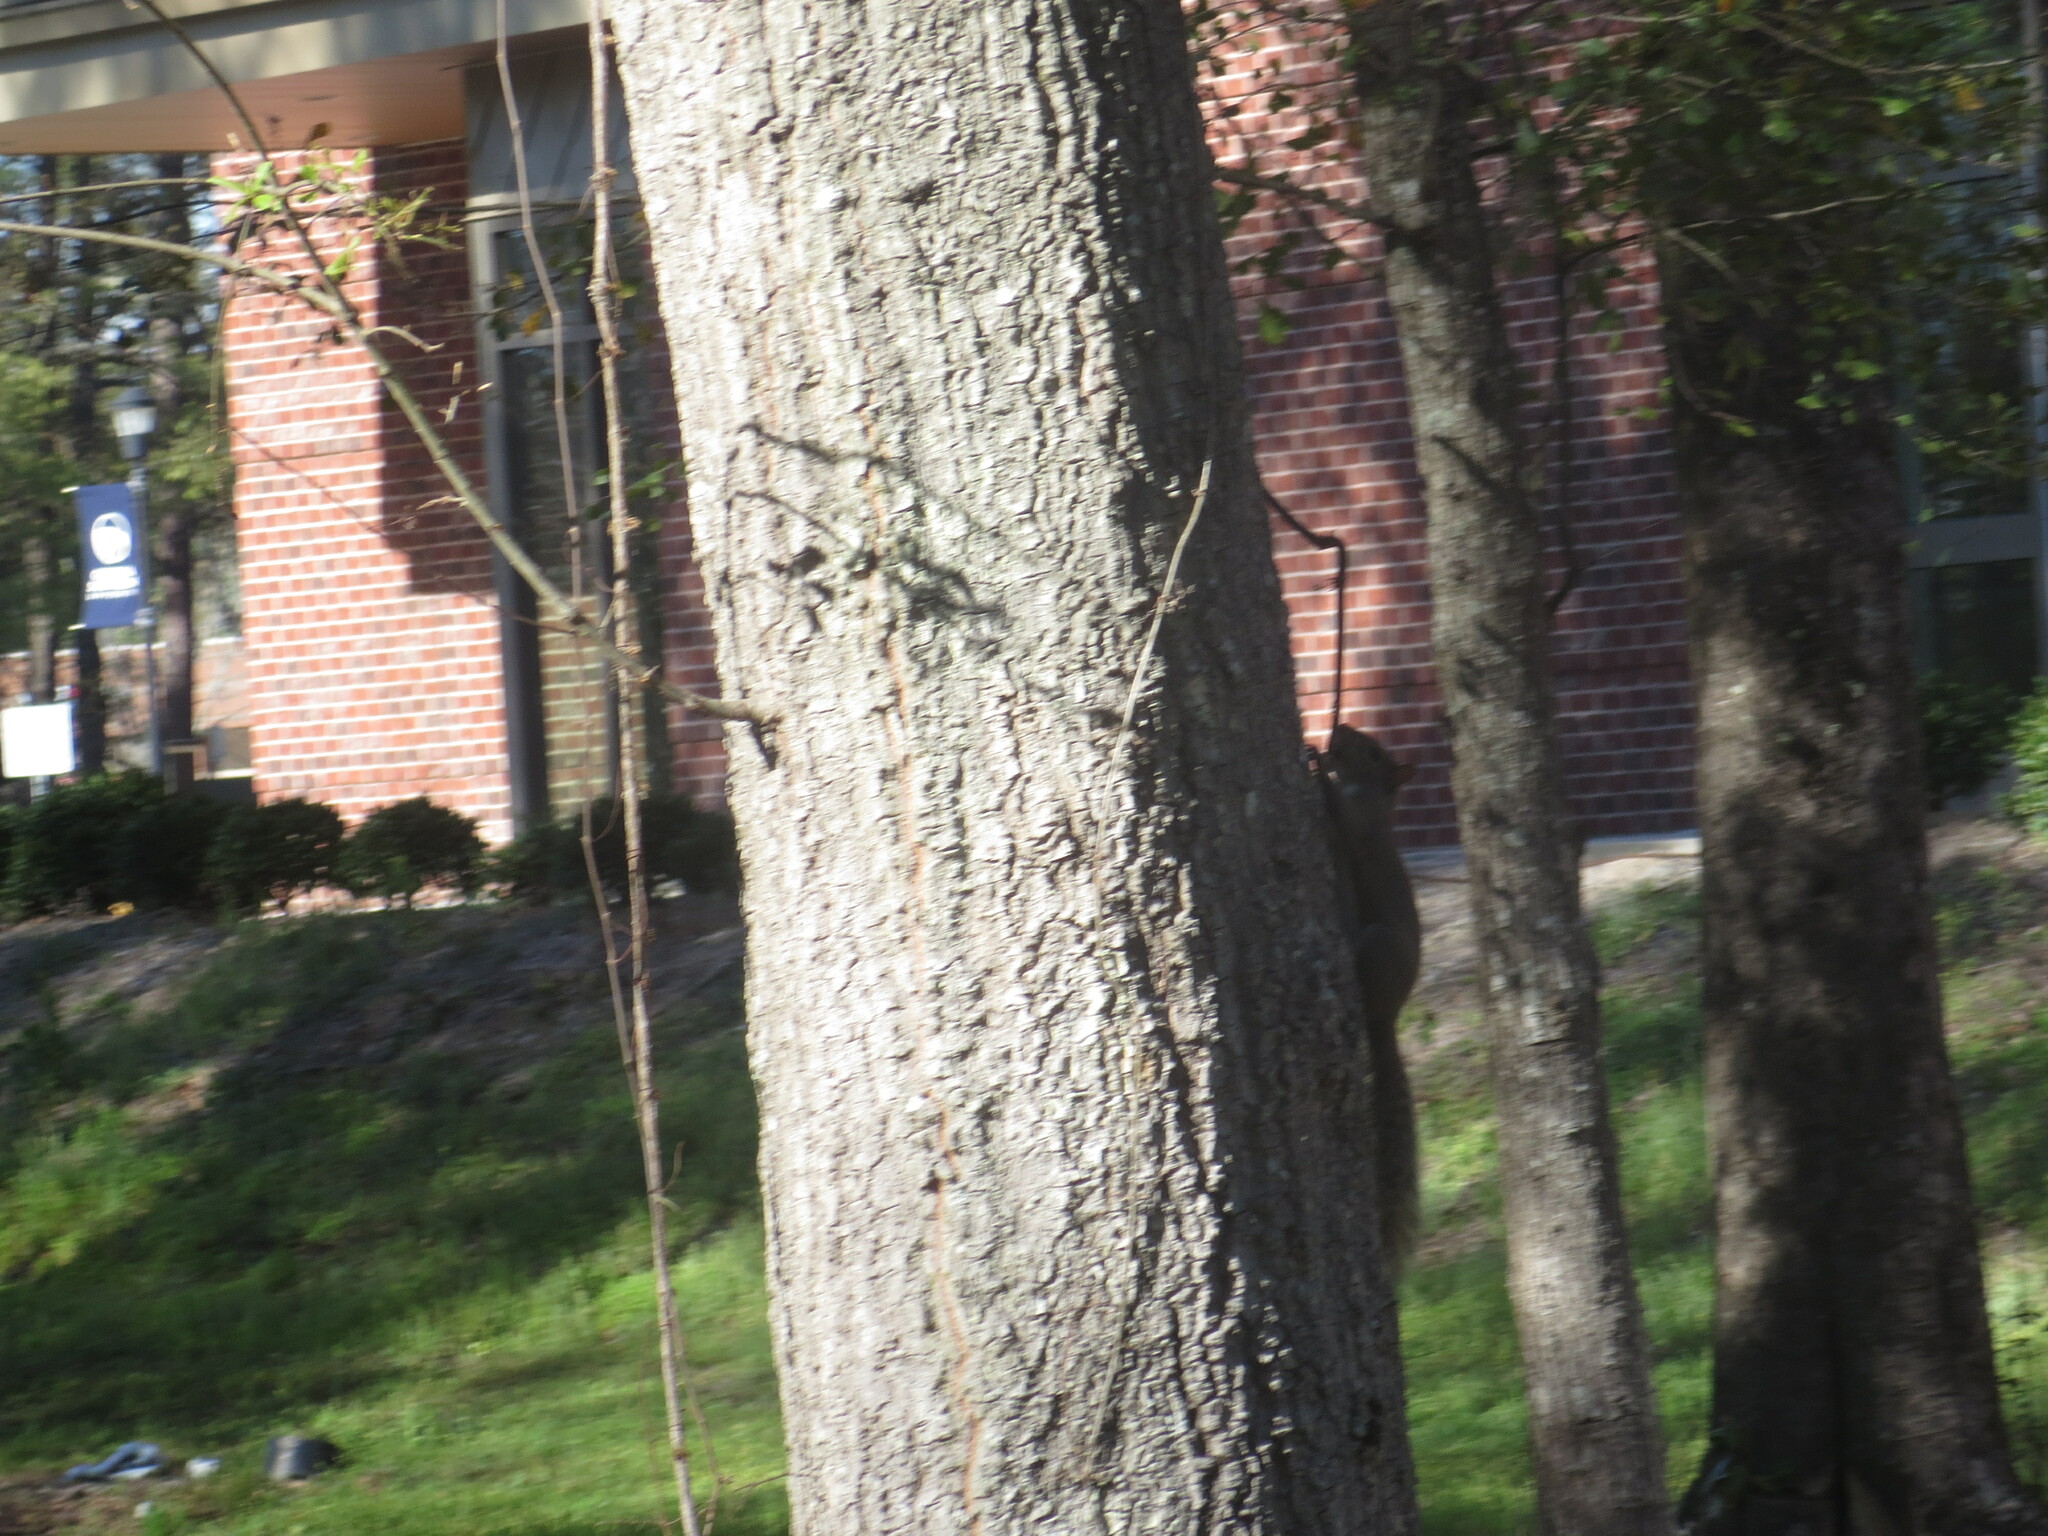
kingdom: Animalia
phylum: Chordata
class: Mammalia
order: Rodentia
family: Sciuridae
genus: Sciurus
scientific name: Sciurus carolinensis
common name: Eastern gray squirrel
